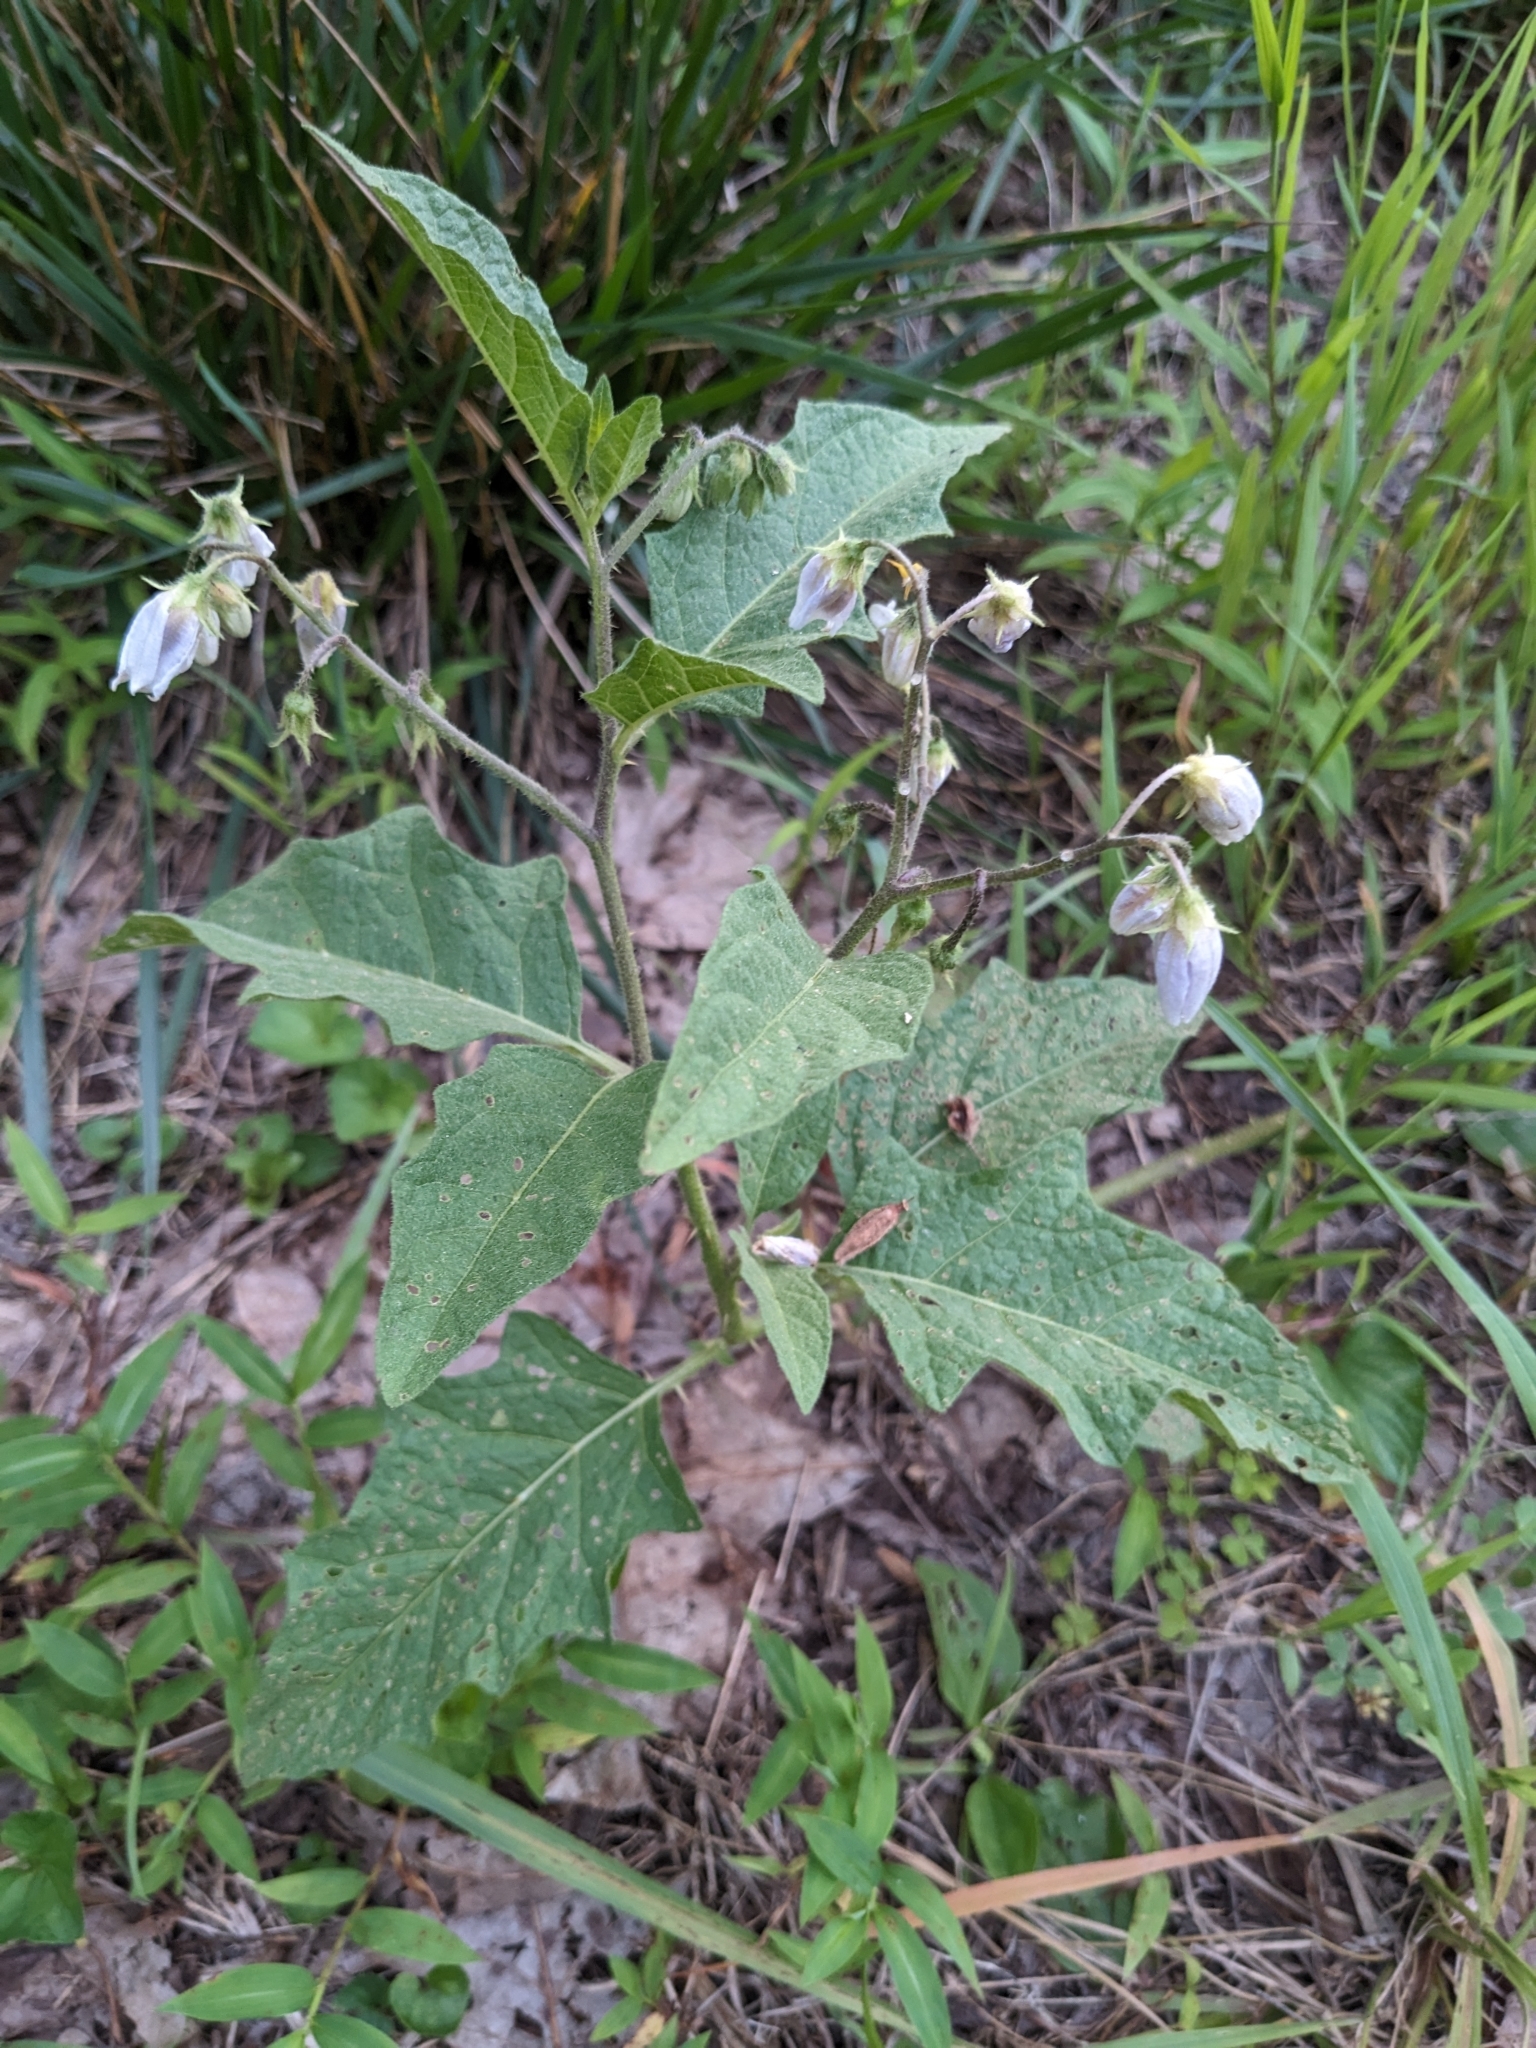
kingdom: Plantae
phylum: Tracheophyta
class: Magnoliopsida
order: Solanales
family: Solanaceae
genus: Solanum
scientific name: Solanum carolinense
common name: Horse-nettle
